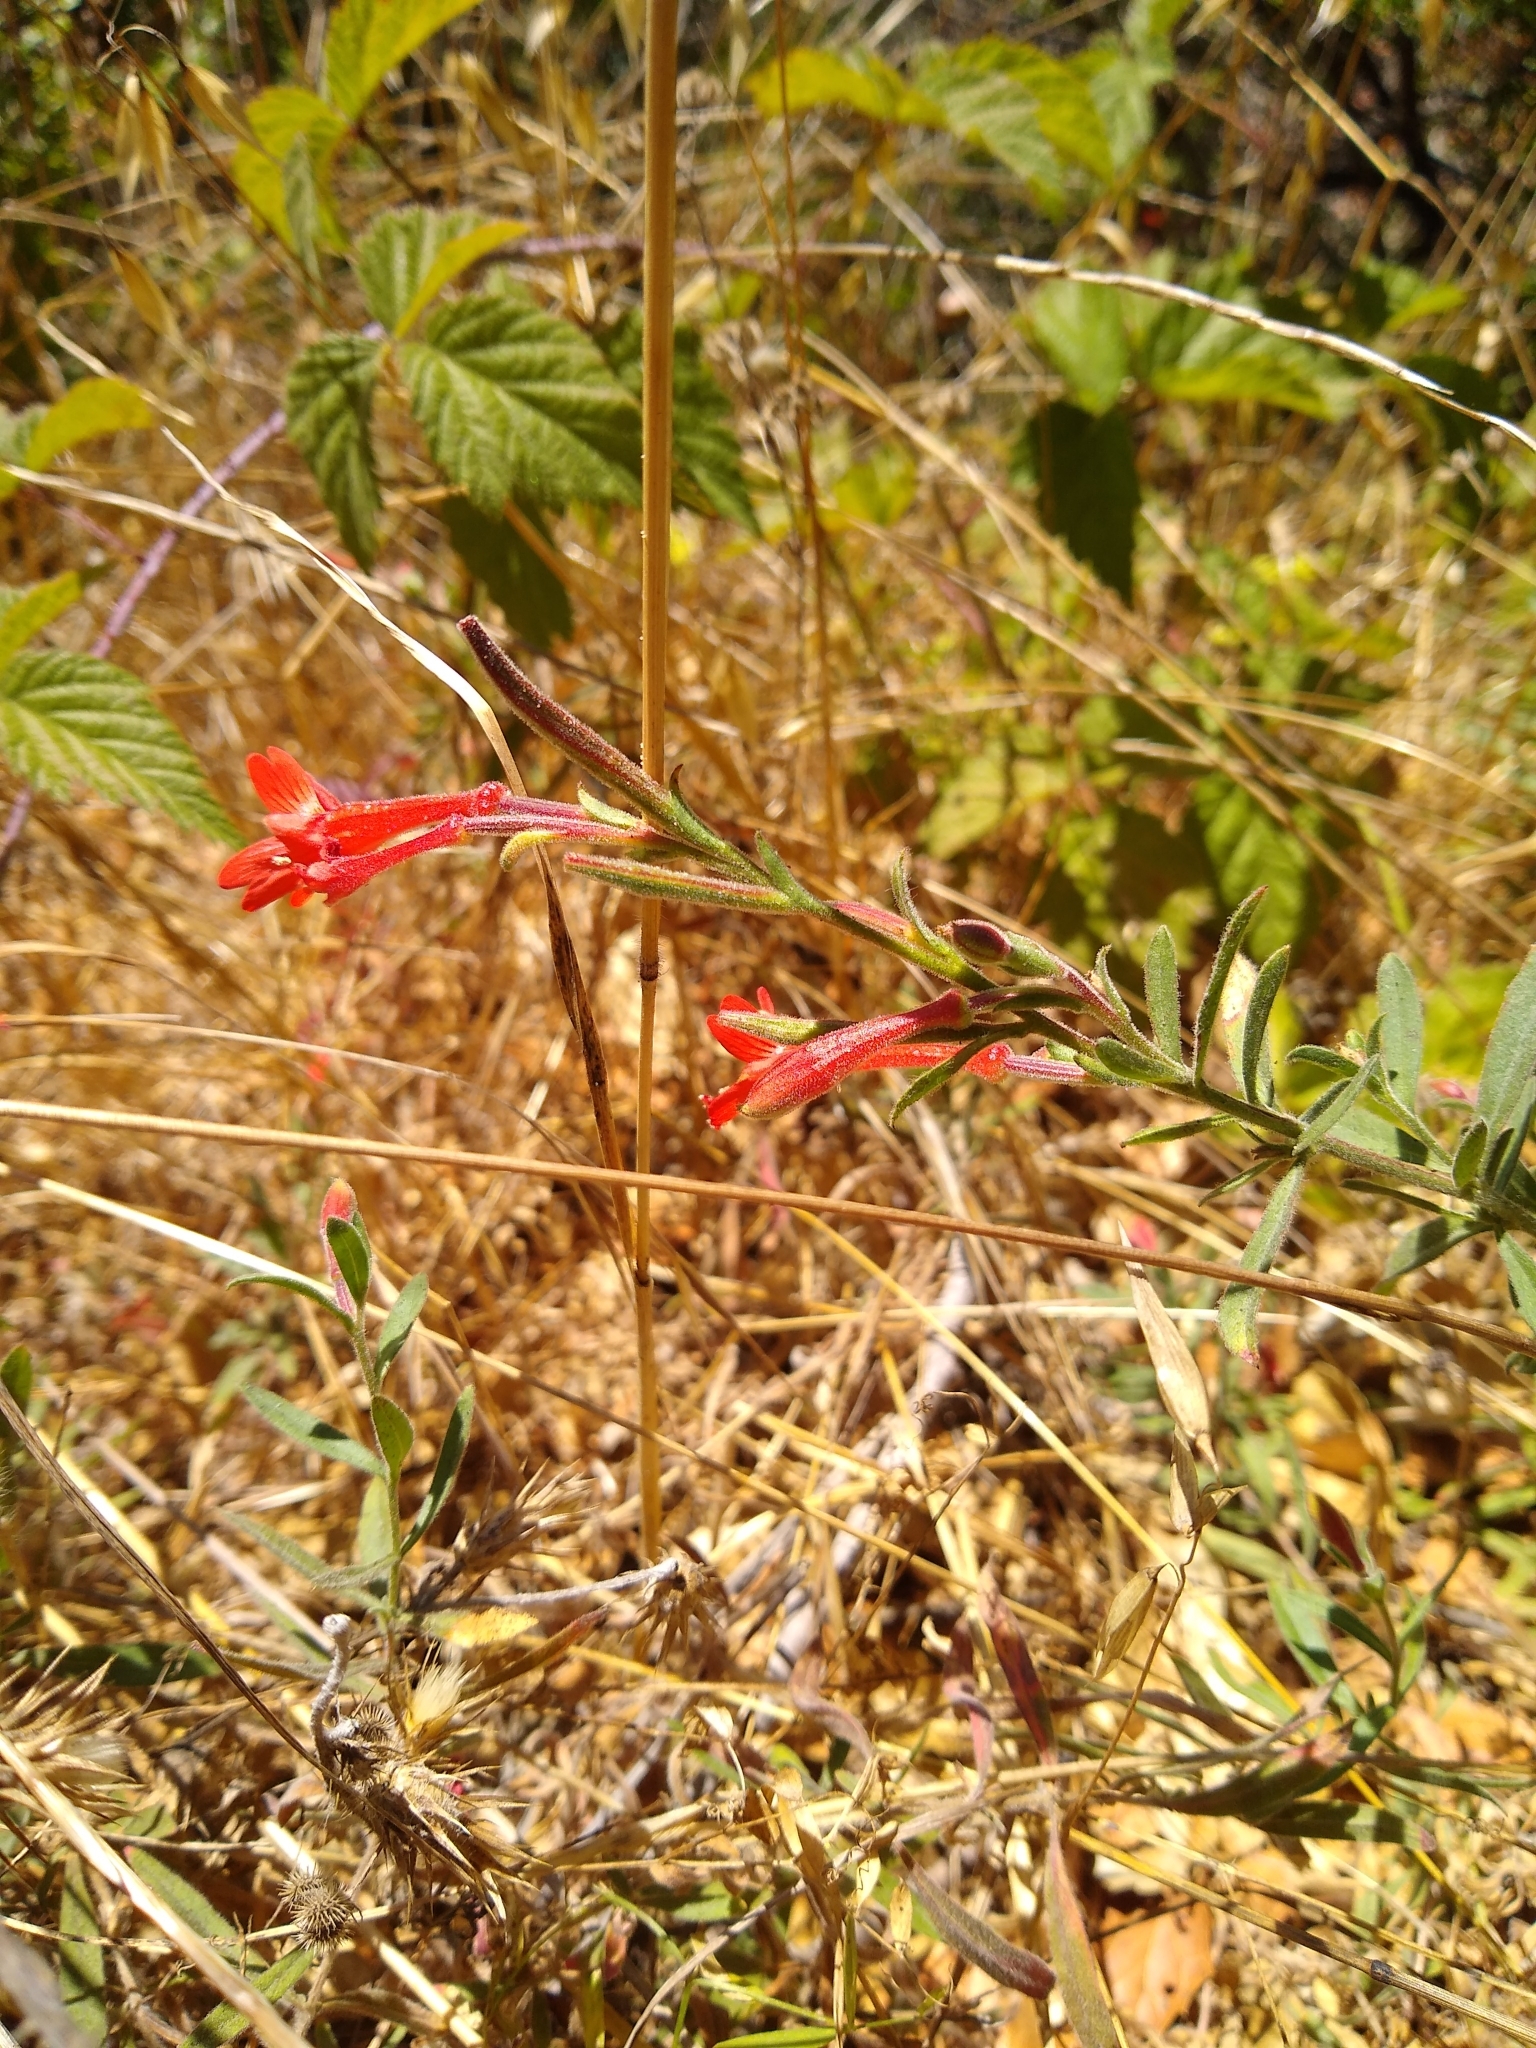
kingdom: Plantae
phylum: Tracheophyta
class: Magnoliopsida
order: Myrtales
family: Onagraceae
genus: Epilobium
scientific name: Epilobium canum
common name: California-fuchsia
